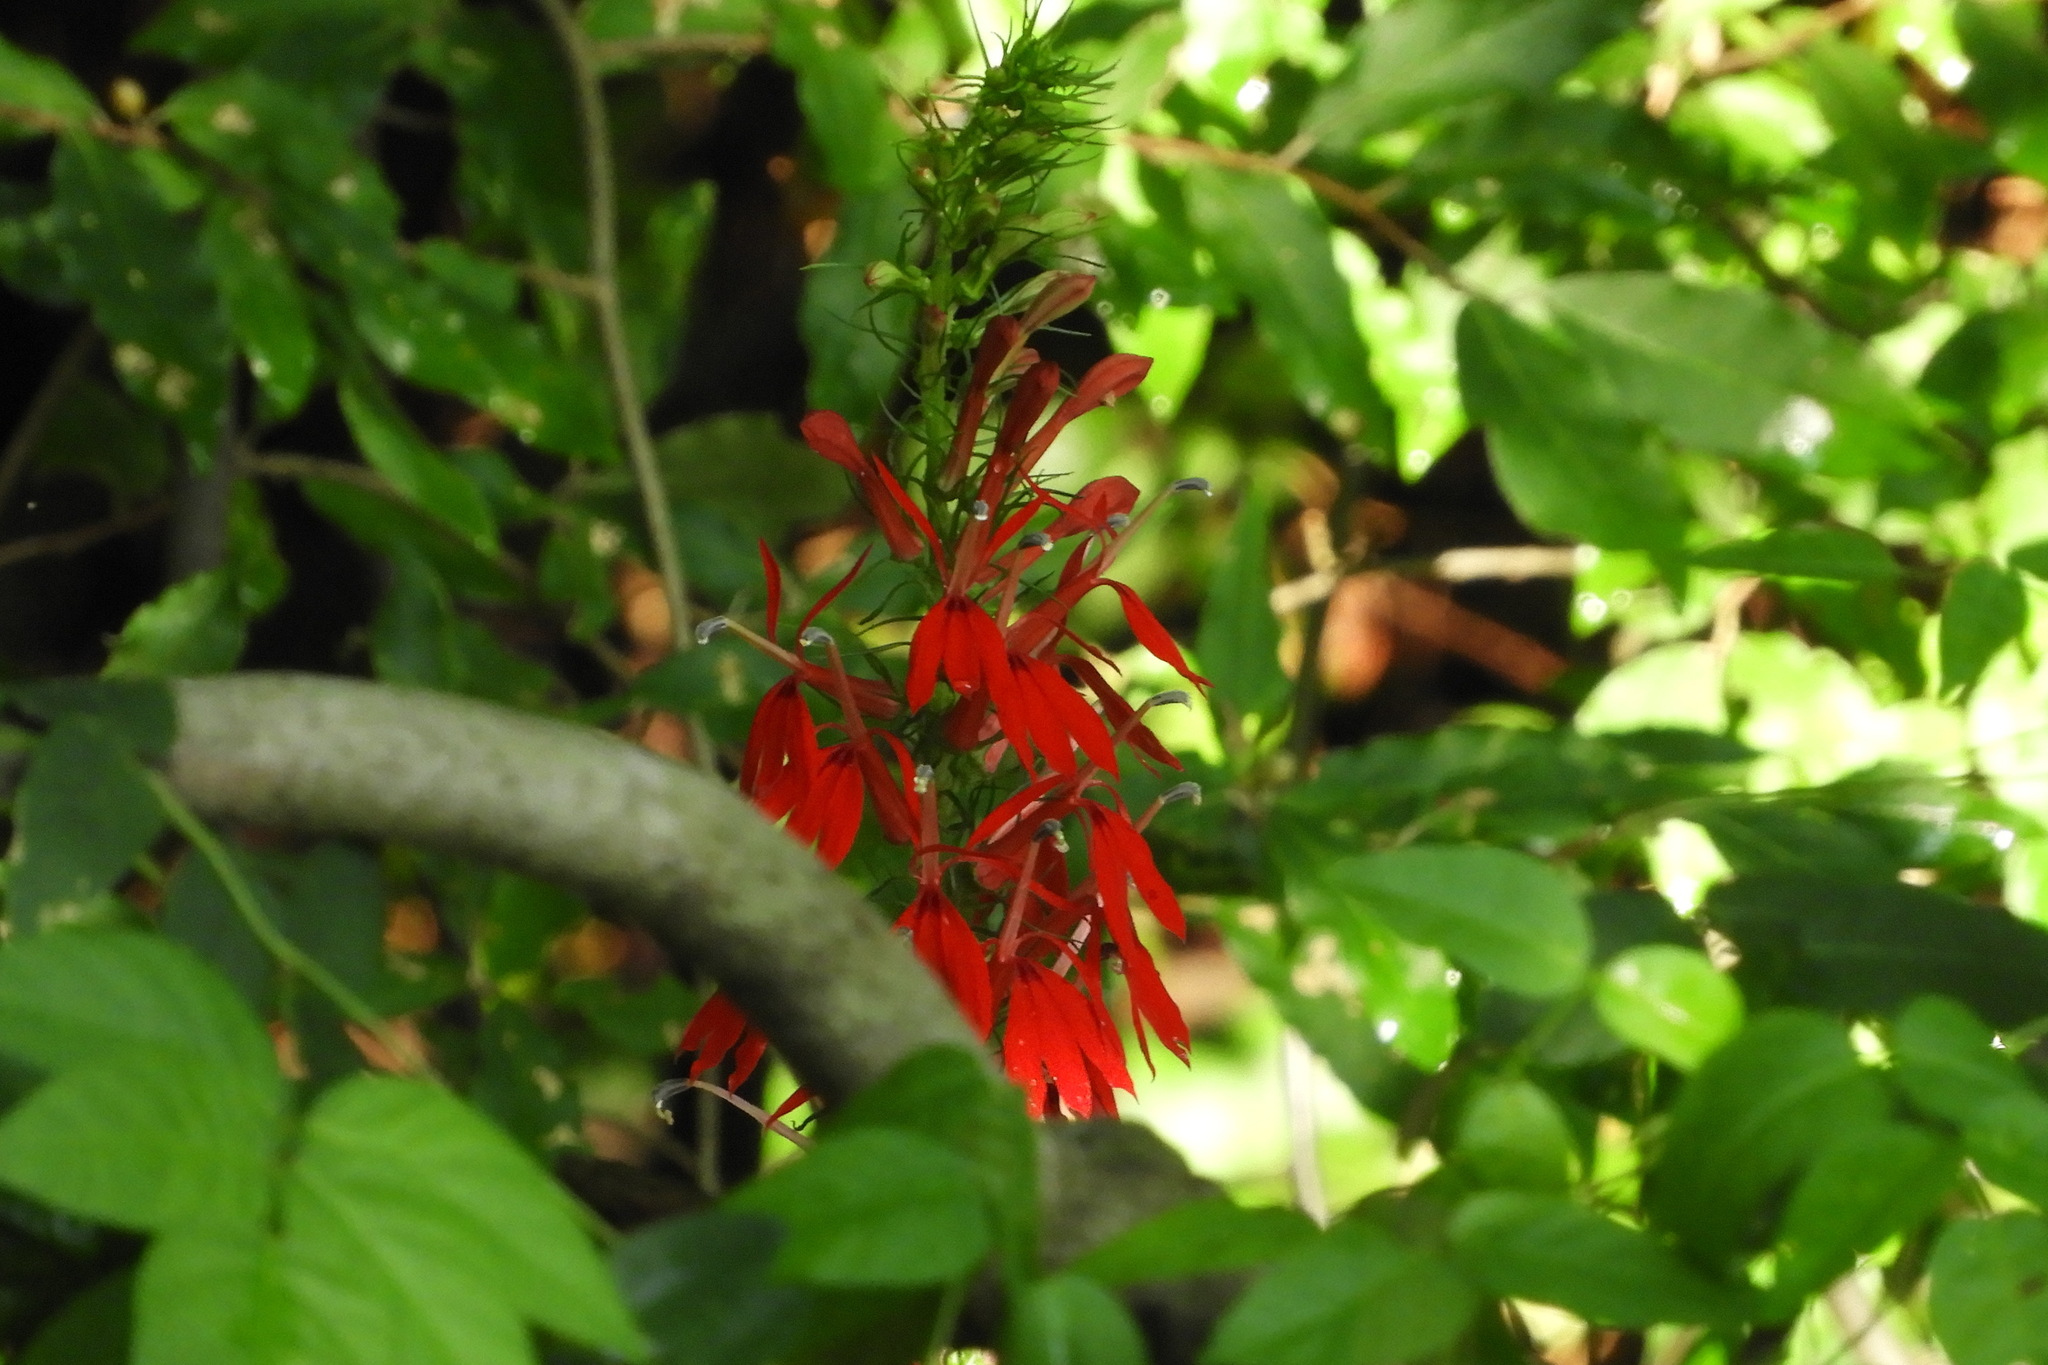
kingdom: Plantae
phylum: Tracheophyta
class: Magnoliopsida
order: Asterales
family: Campanulaceae
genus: Lobelia
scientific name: Lobelia cardinalis
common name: Cardinal flower
